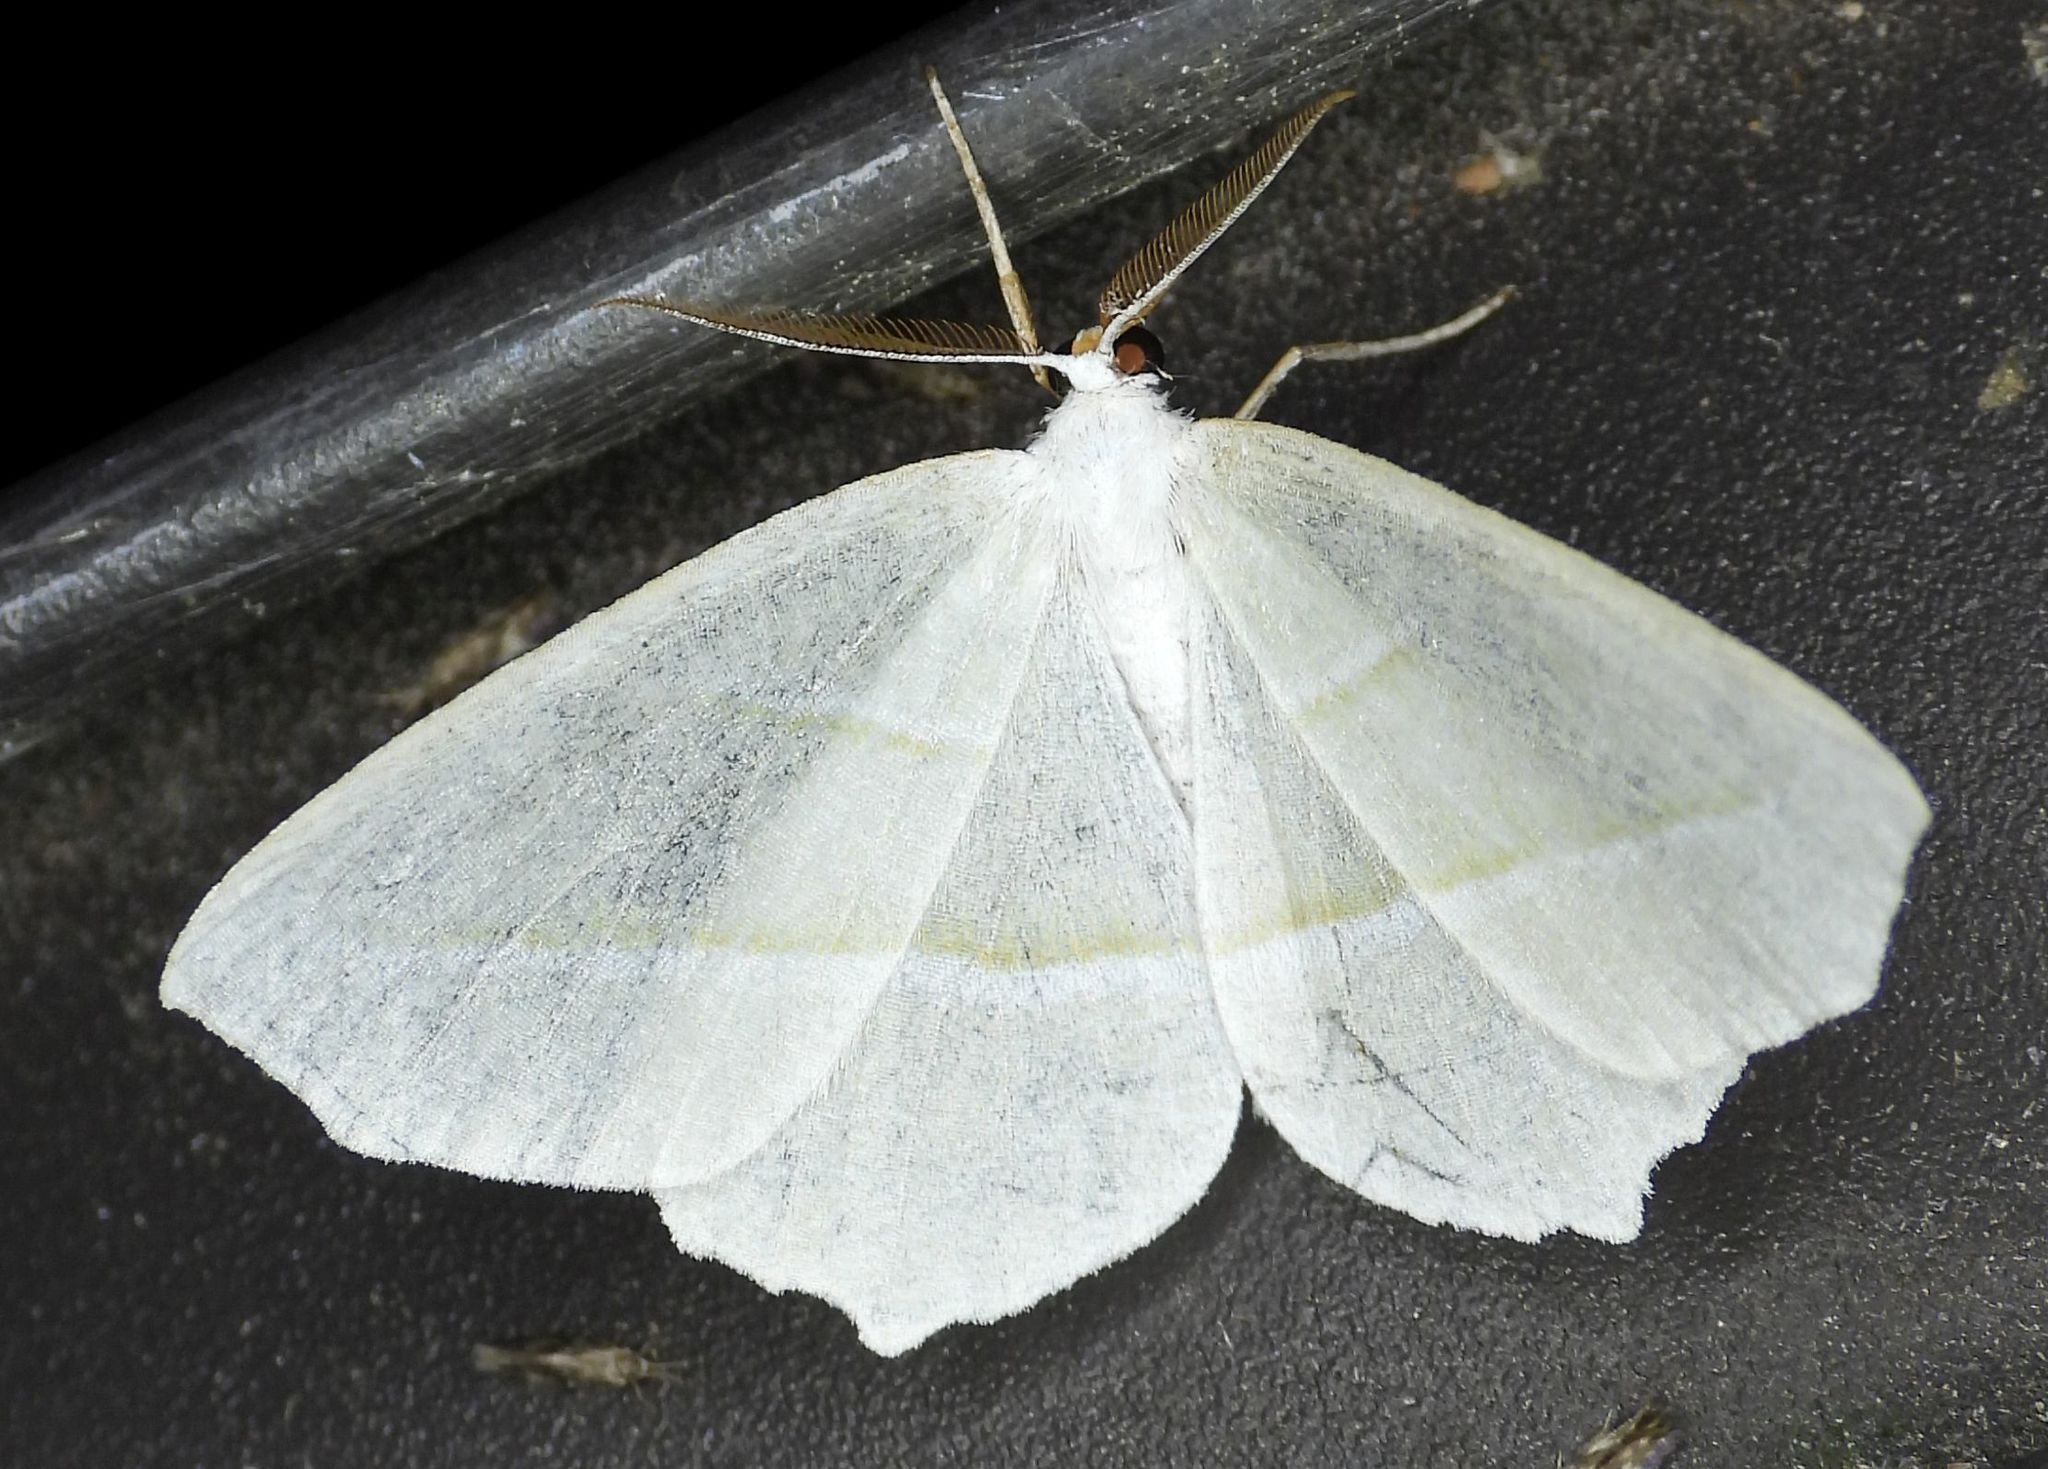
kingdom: Animalia
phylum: Arthropoda
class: Insecta
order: Lepidoptera
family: Geometridae
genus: Campaea
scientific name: Campaea perlata
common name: Fringed looper
